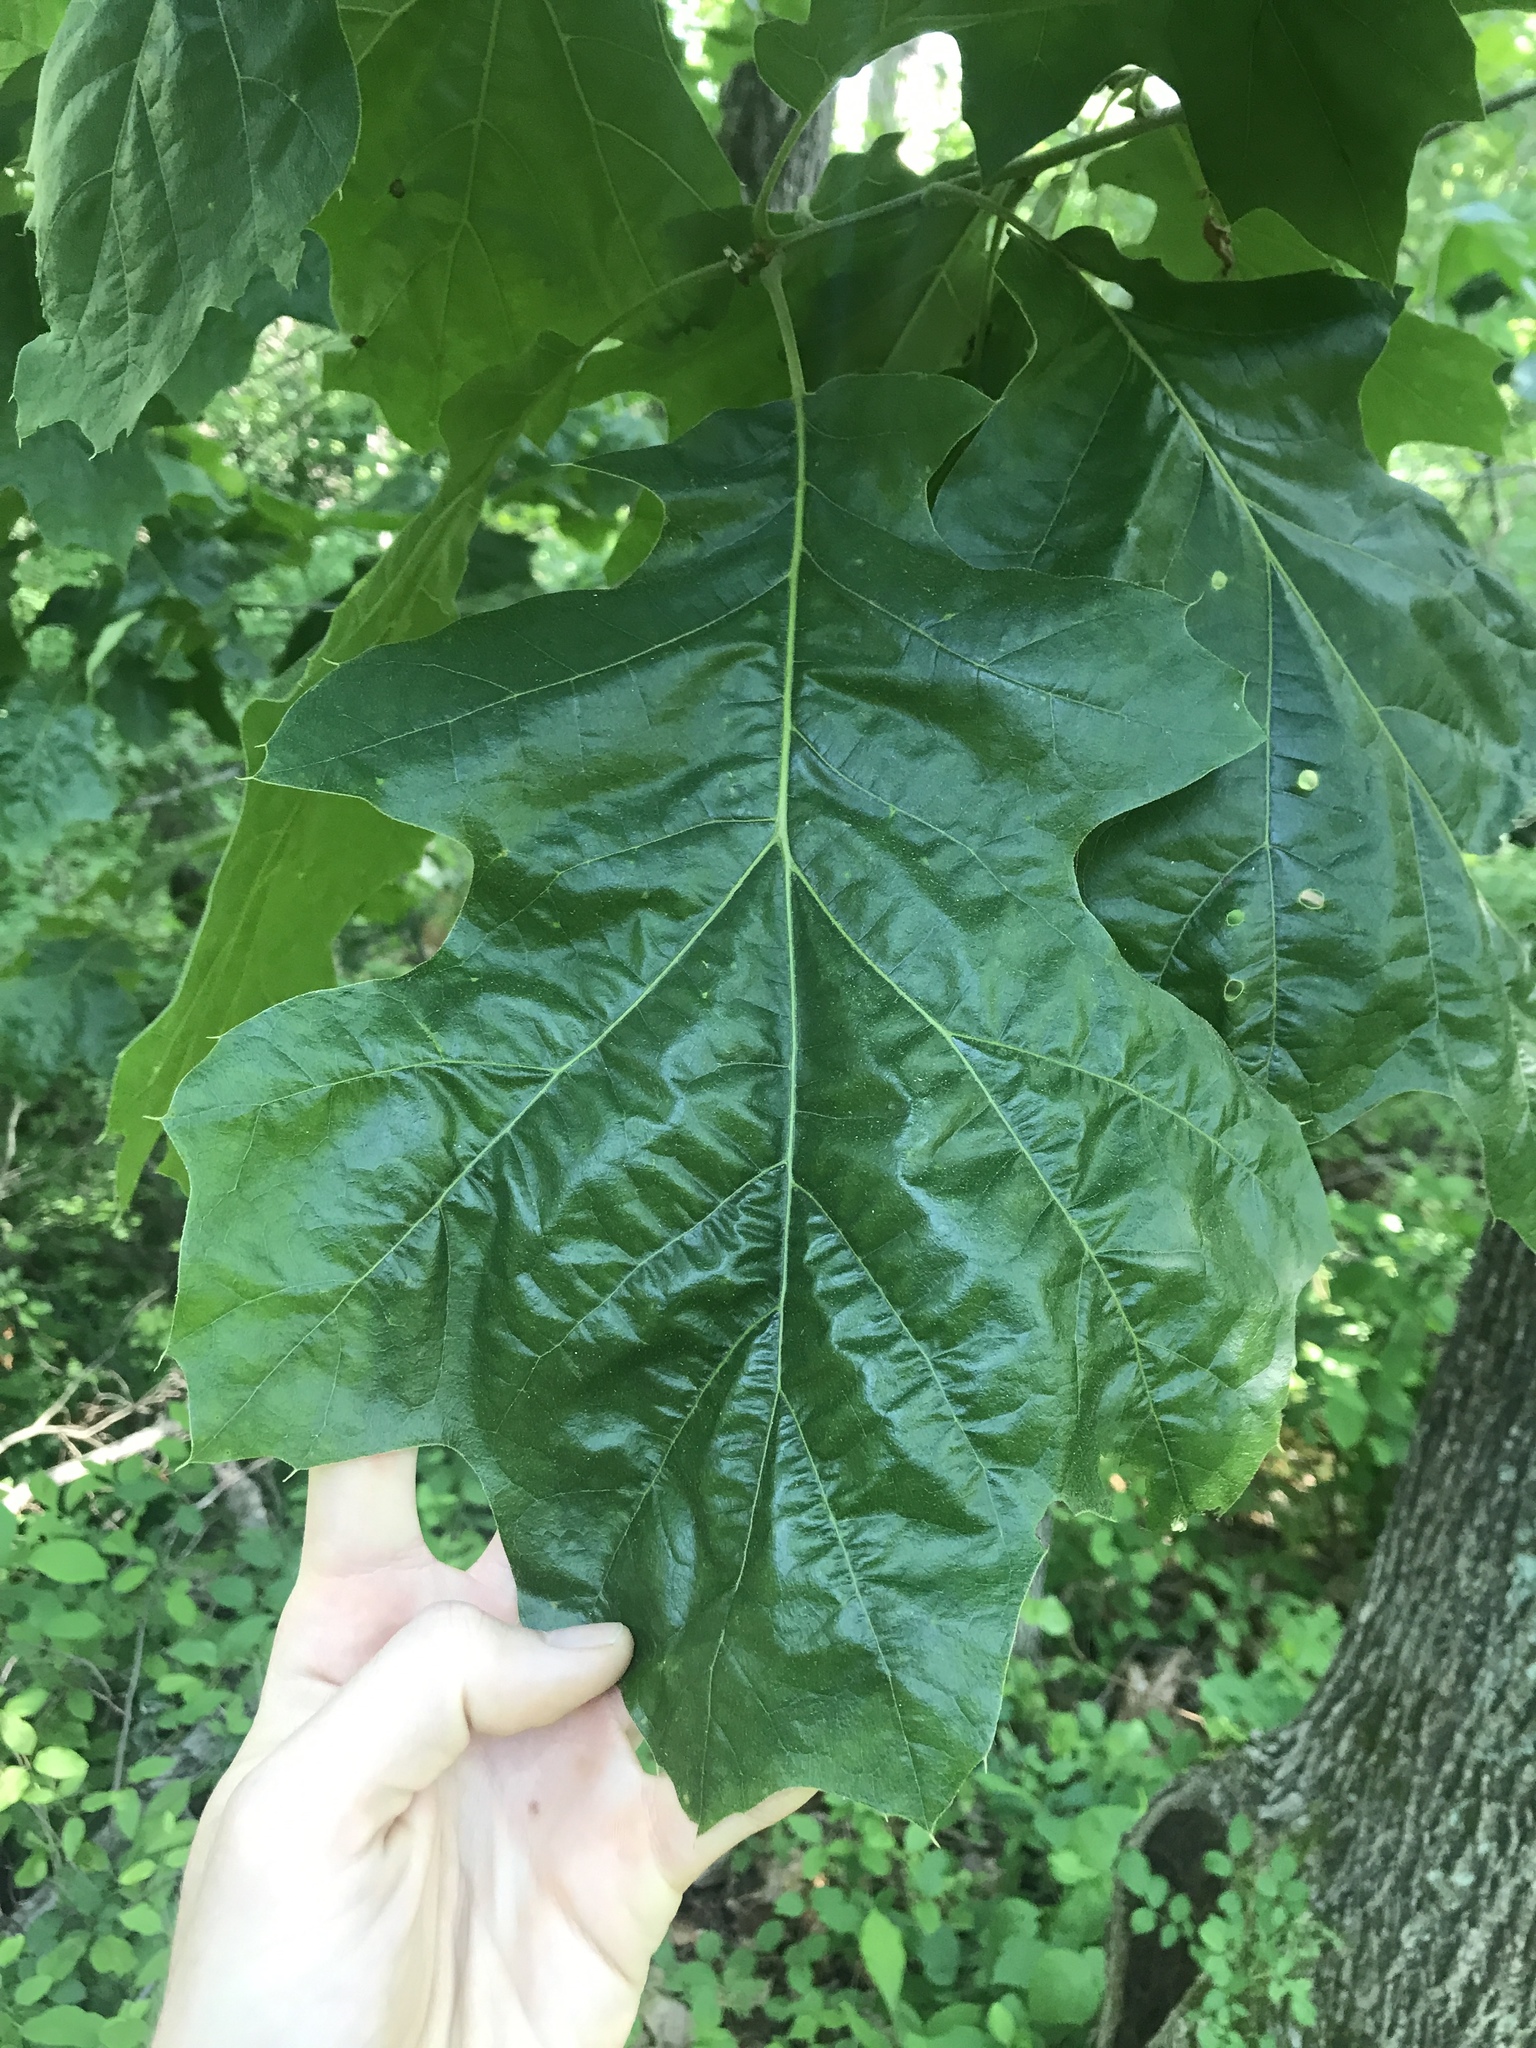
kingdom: Plantae
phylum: Tracheophyta
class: Magnoliopsida
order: Fagales
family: Fagaceae
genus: Quercus
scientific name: Quercus velutina
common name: Black oak
